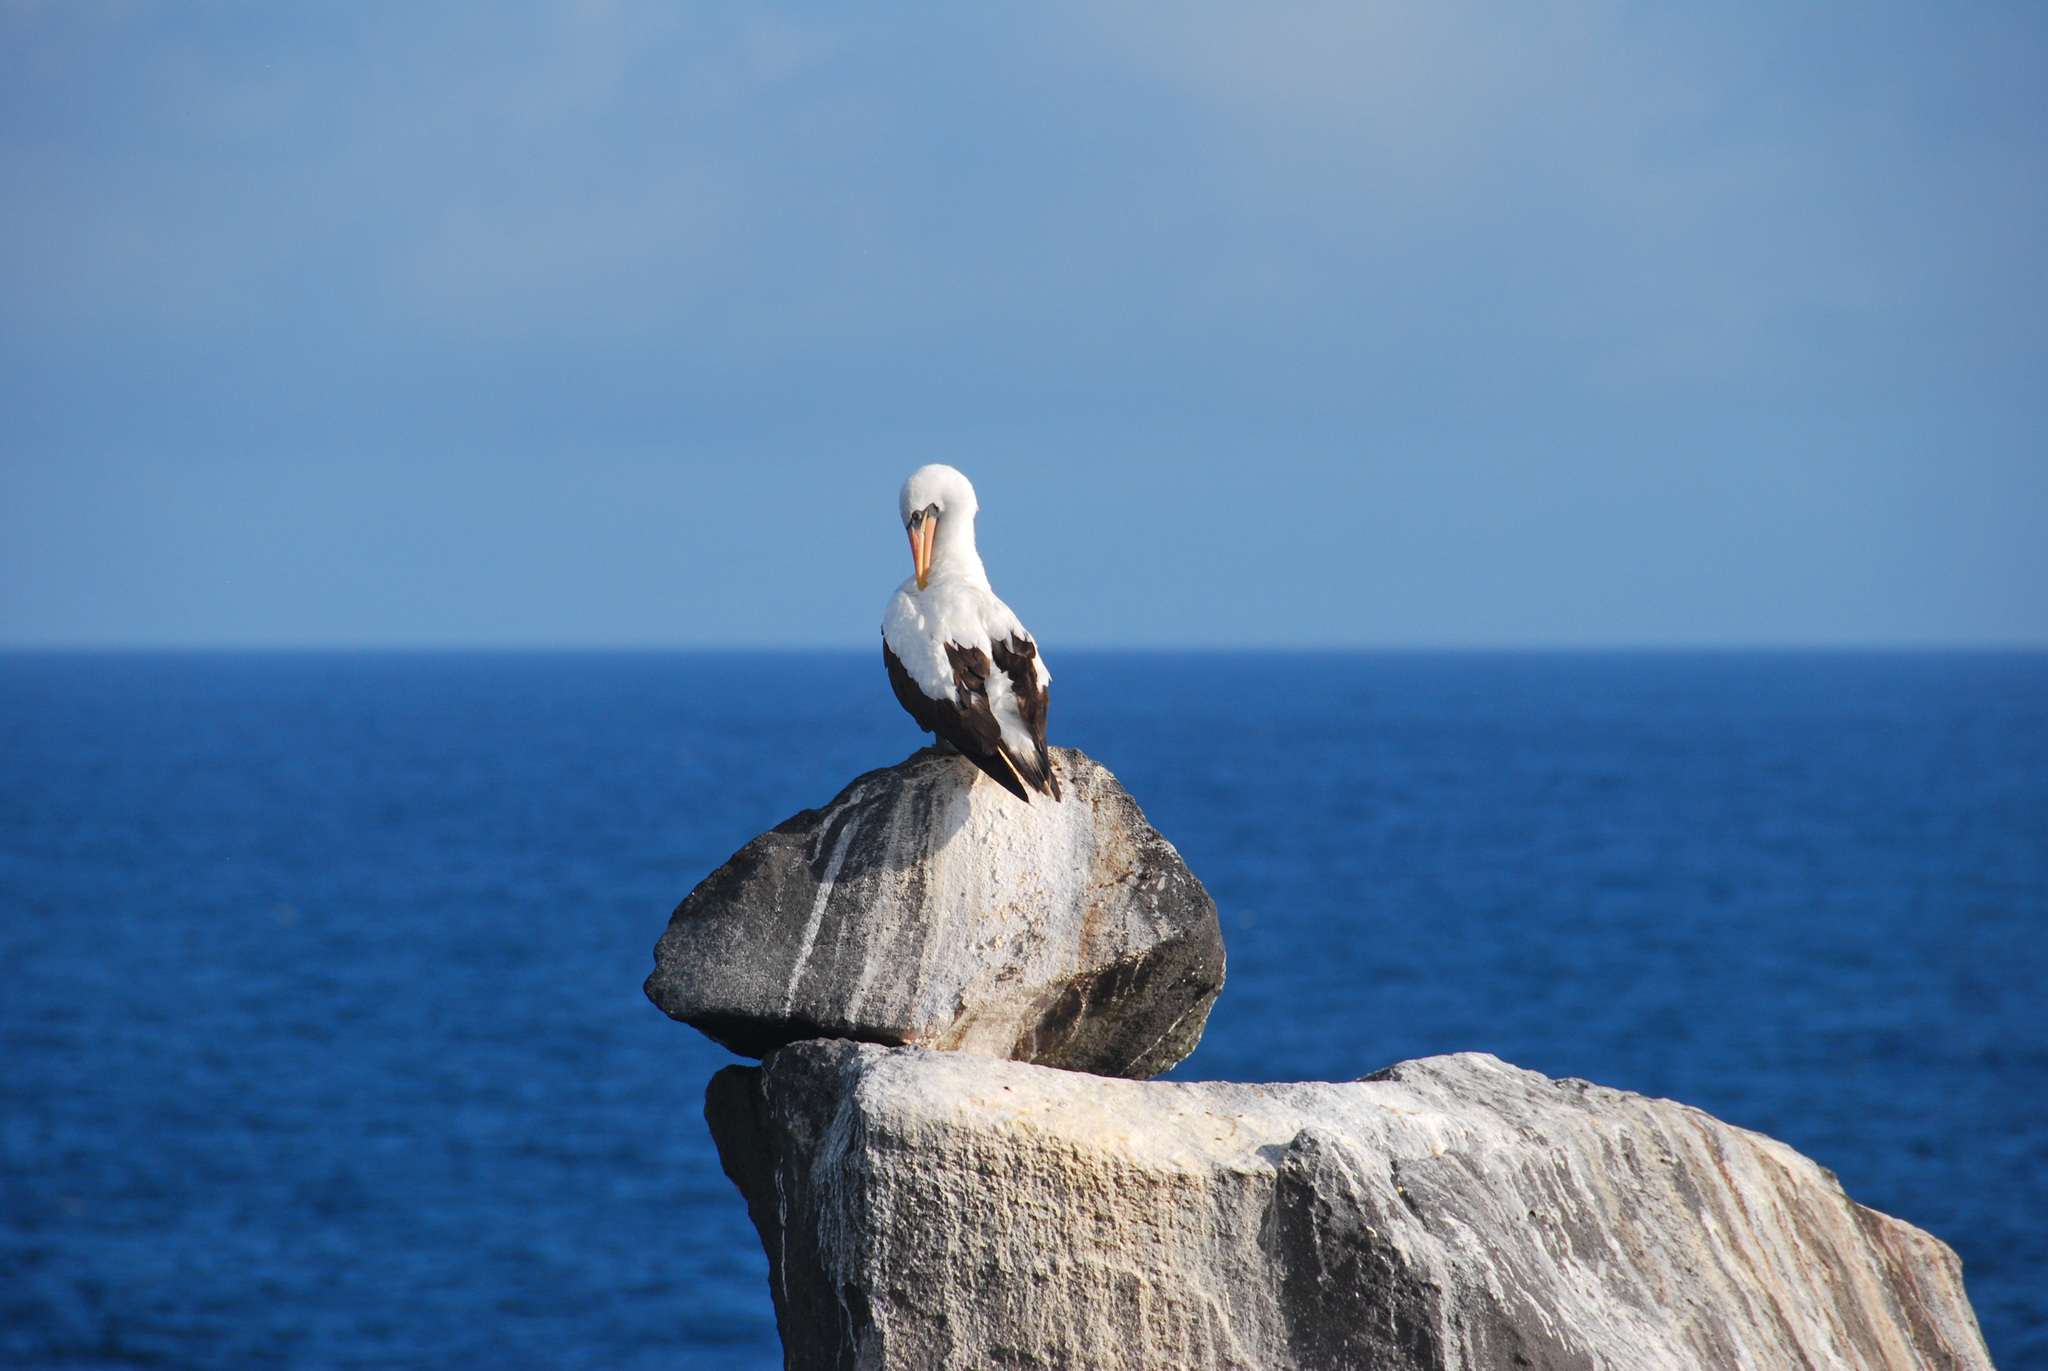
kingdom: Animalia
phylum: Chordata
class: Aves
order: Suliformes
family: Sulidae
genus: Sula
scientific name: Sula granti
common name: Nazca booby
